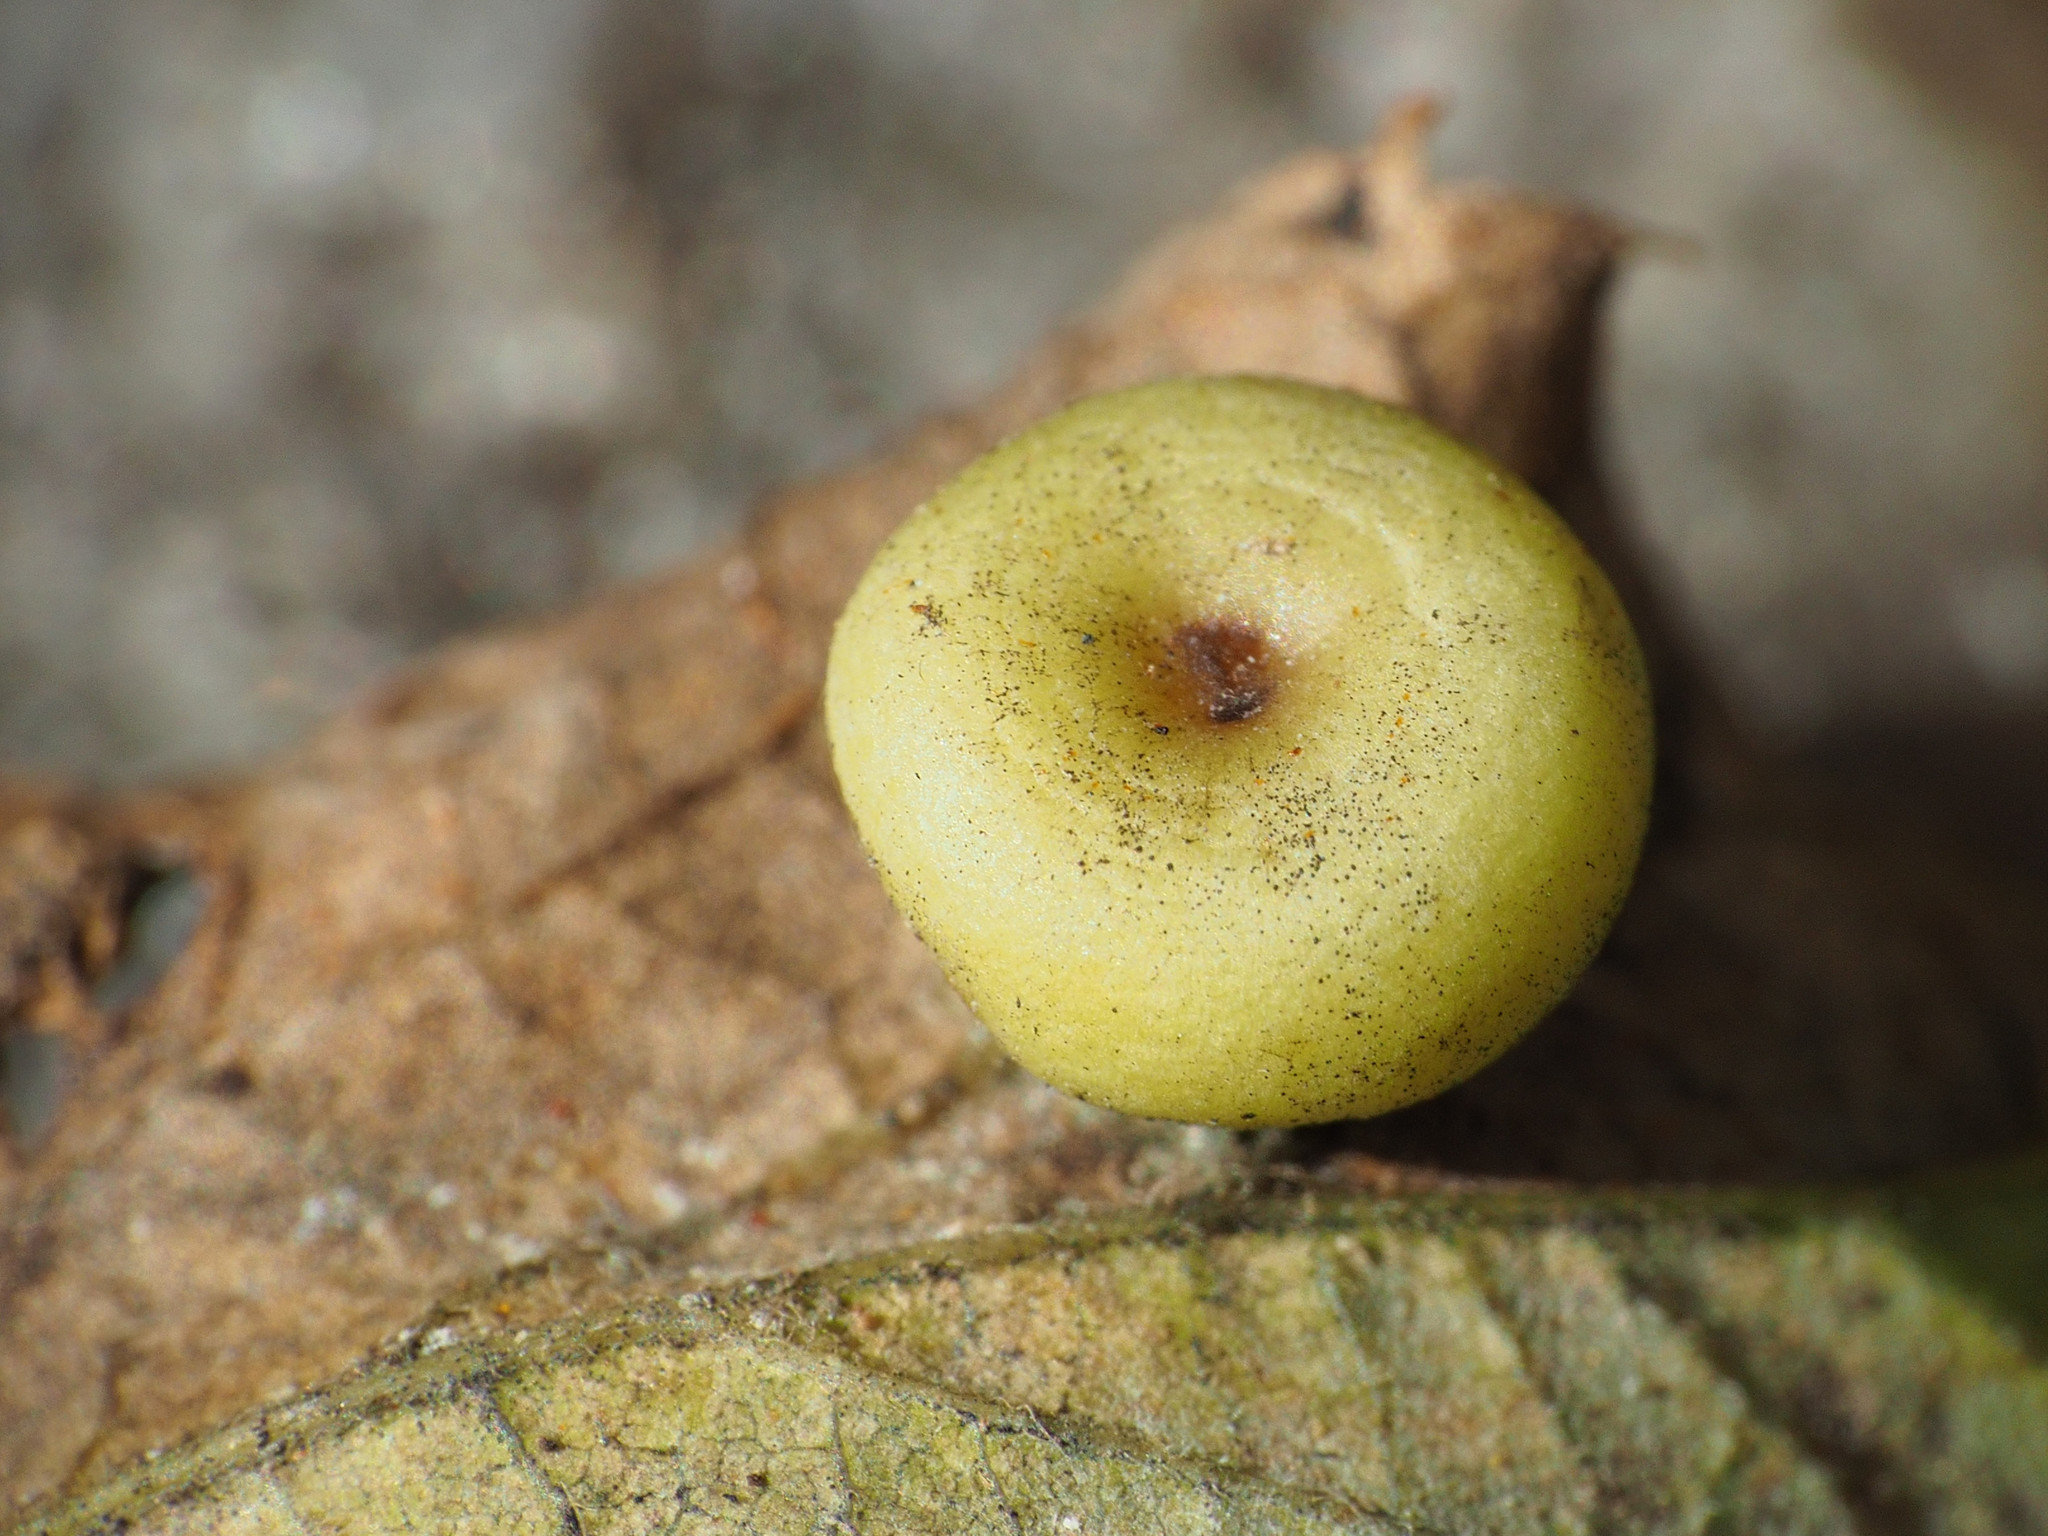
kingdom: Animalia
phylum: Arthropoda
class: Insecta
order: Hemiptera
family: Aphalaridae
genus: Pachypsylla
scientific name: Pachypsylla celtidismamma
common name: Hackberry nipplegall psyllid
